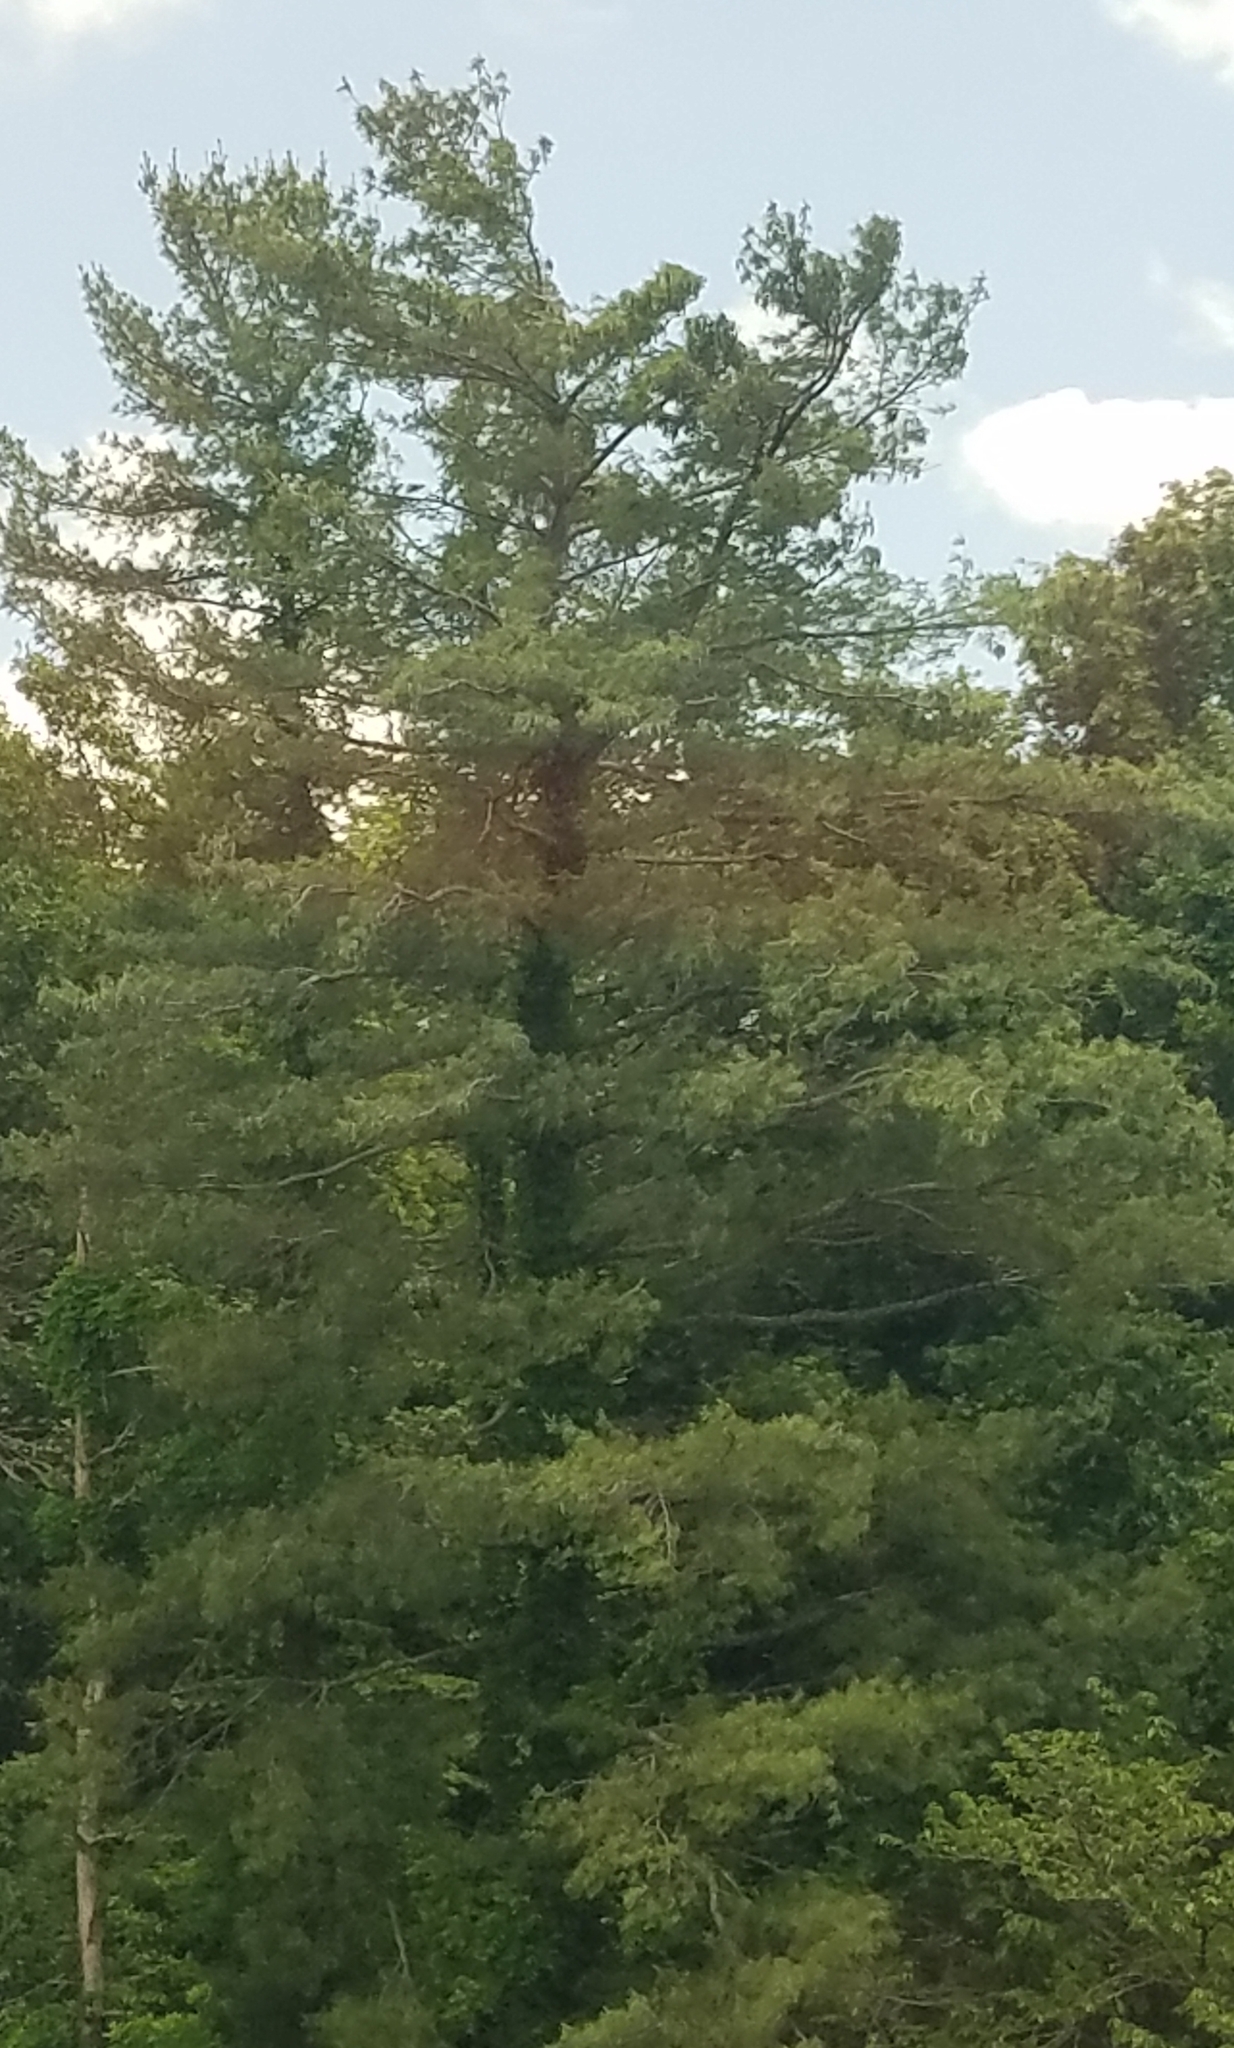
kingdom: Plantae
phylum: Tracheophyta
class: Pinopsida
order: Pinales
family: Pinaceae
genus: Pinus
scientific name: Pinus strobus
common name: Weymouth pine
